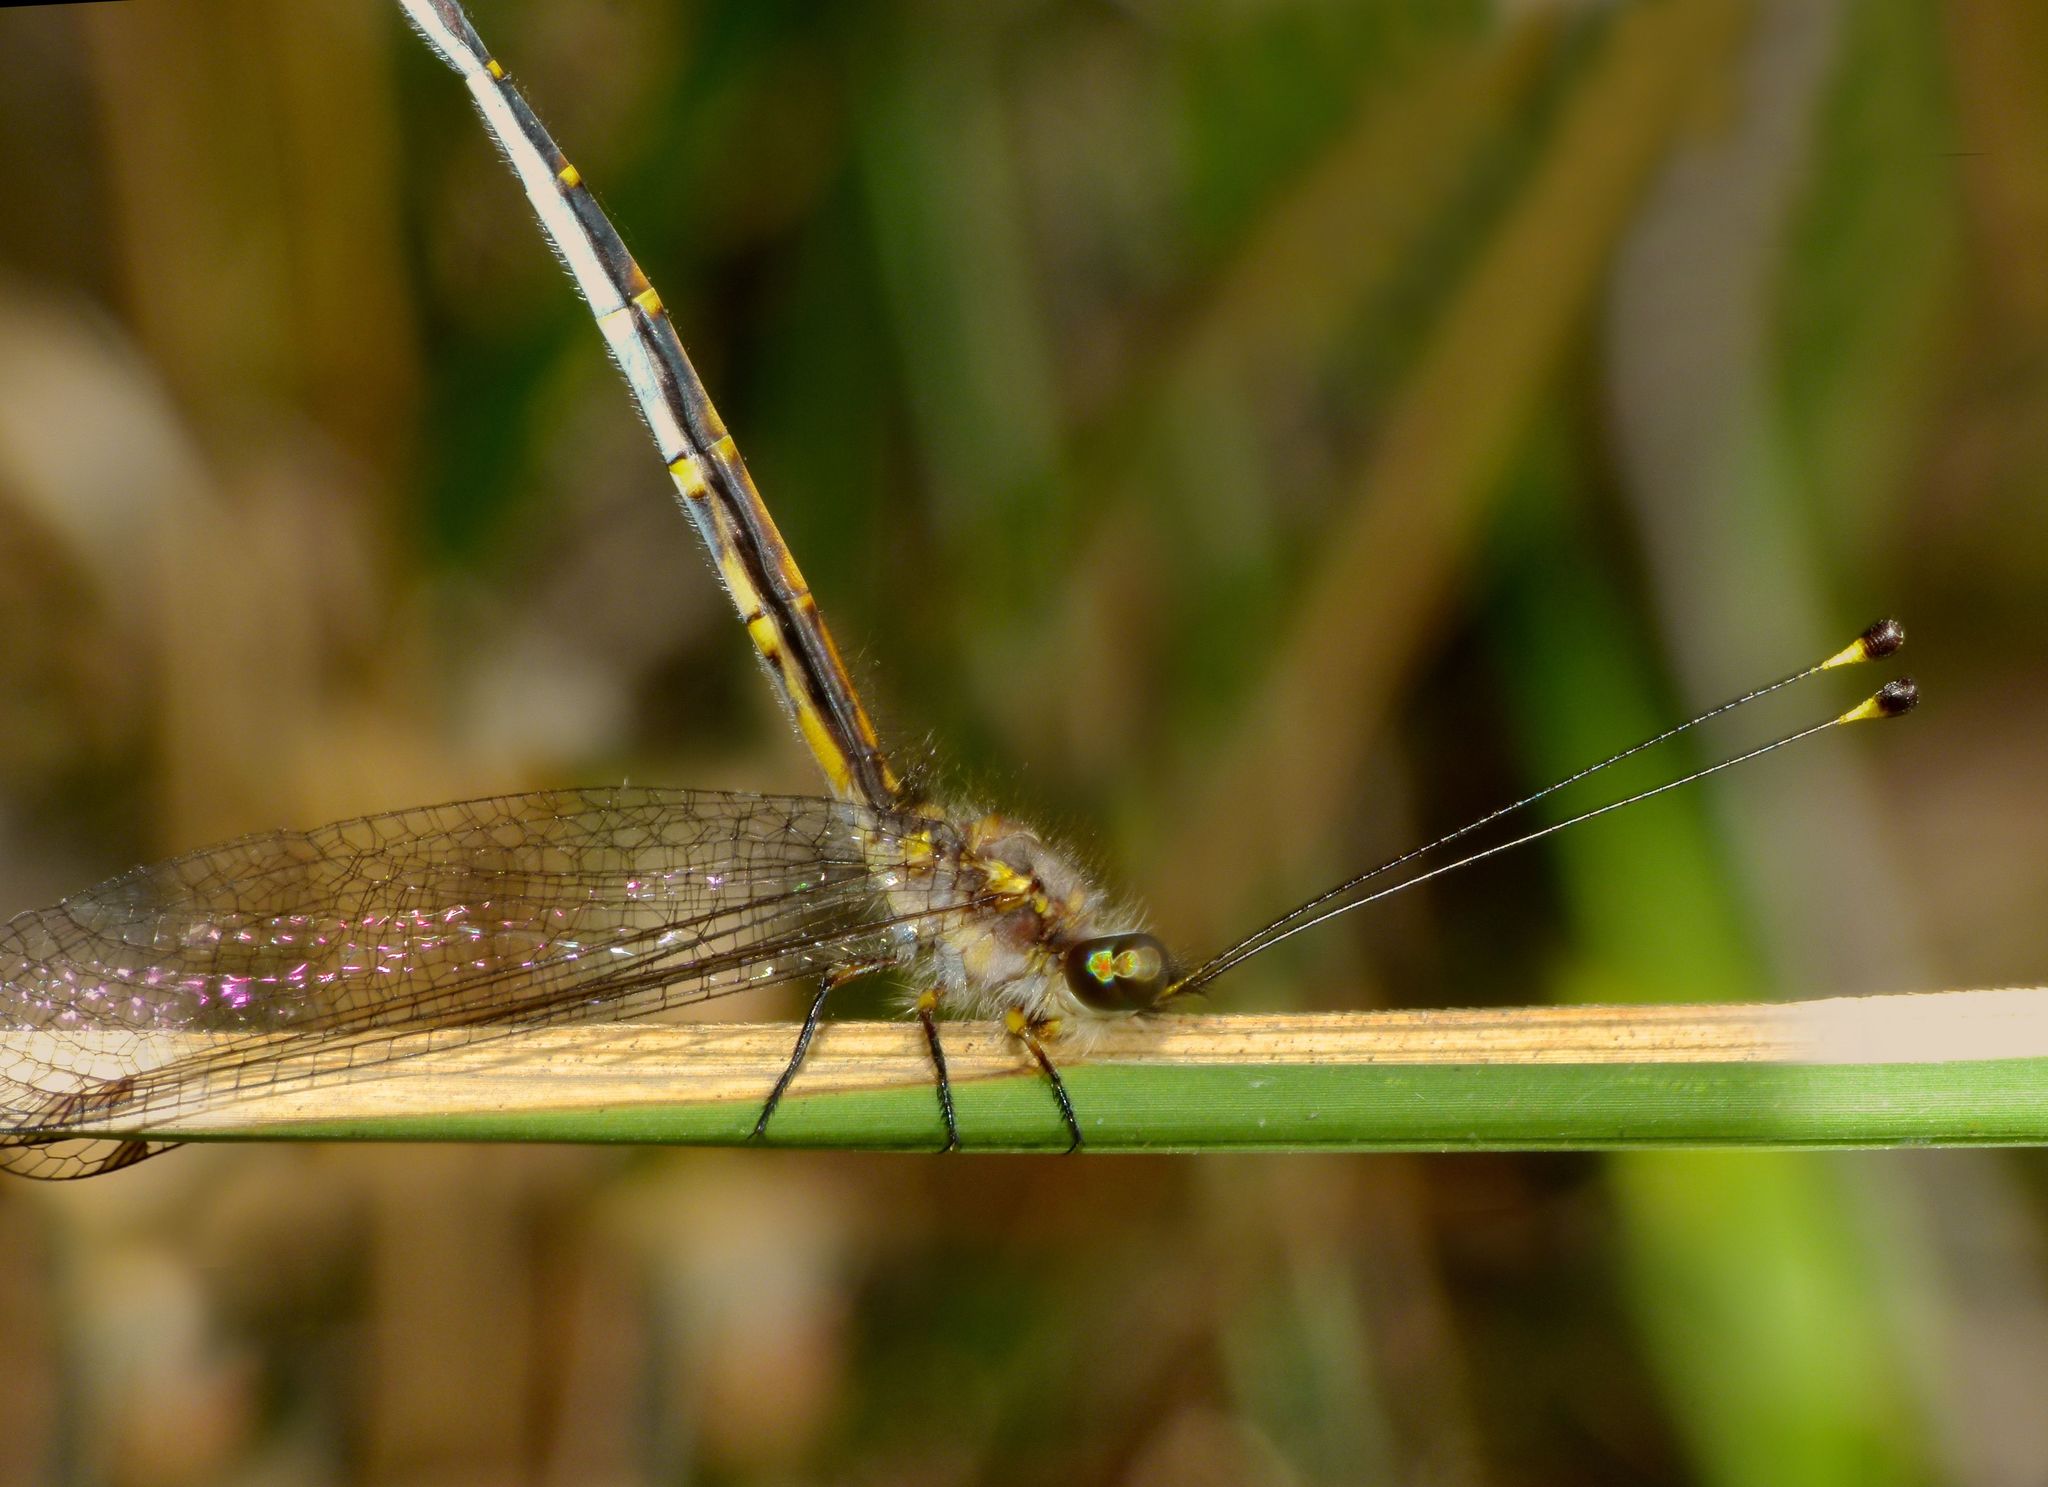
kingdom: Animalia
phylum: Arthropoda
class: Insecta
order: Neuroptera
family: Ascalaphidae
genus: Suhpalacsa
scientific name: Suhpalacsa subtrahens
